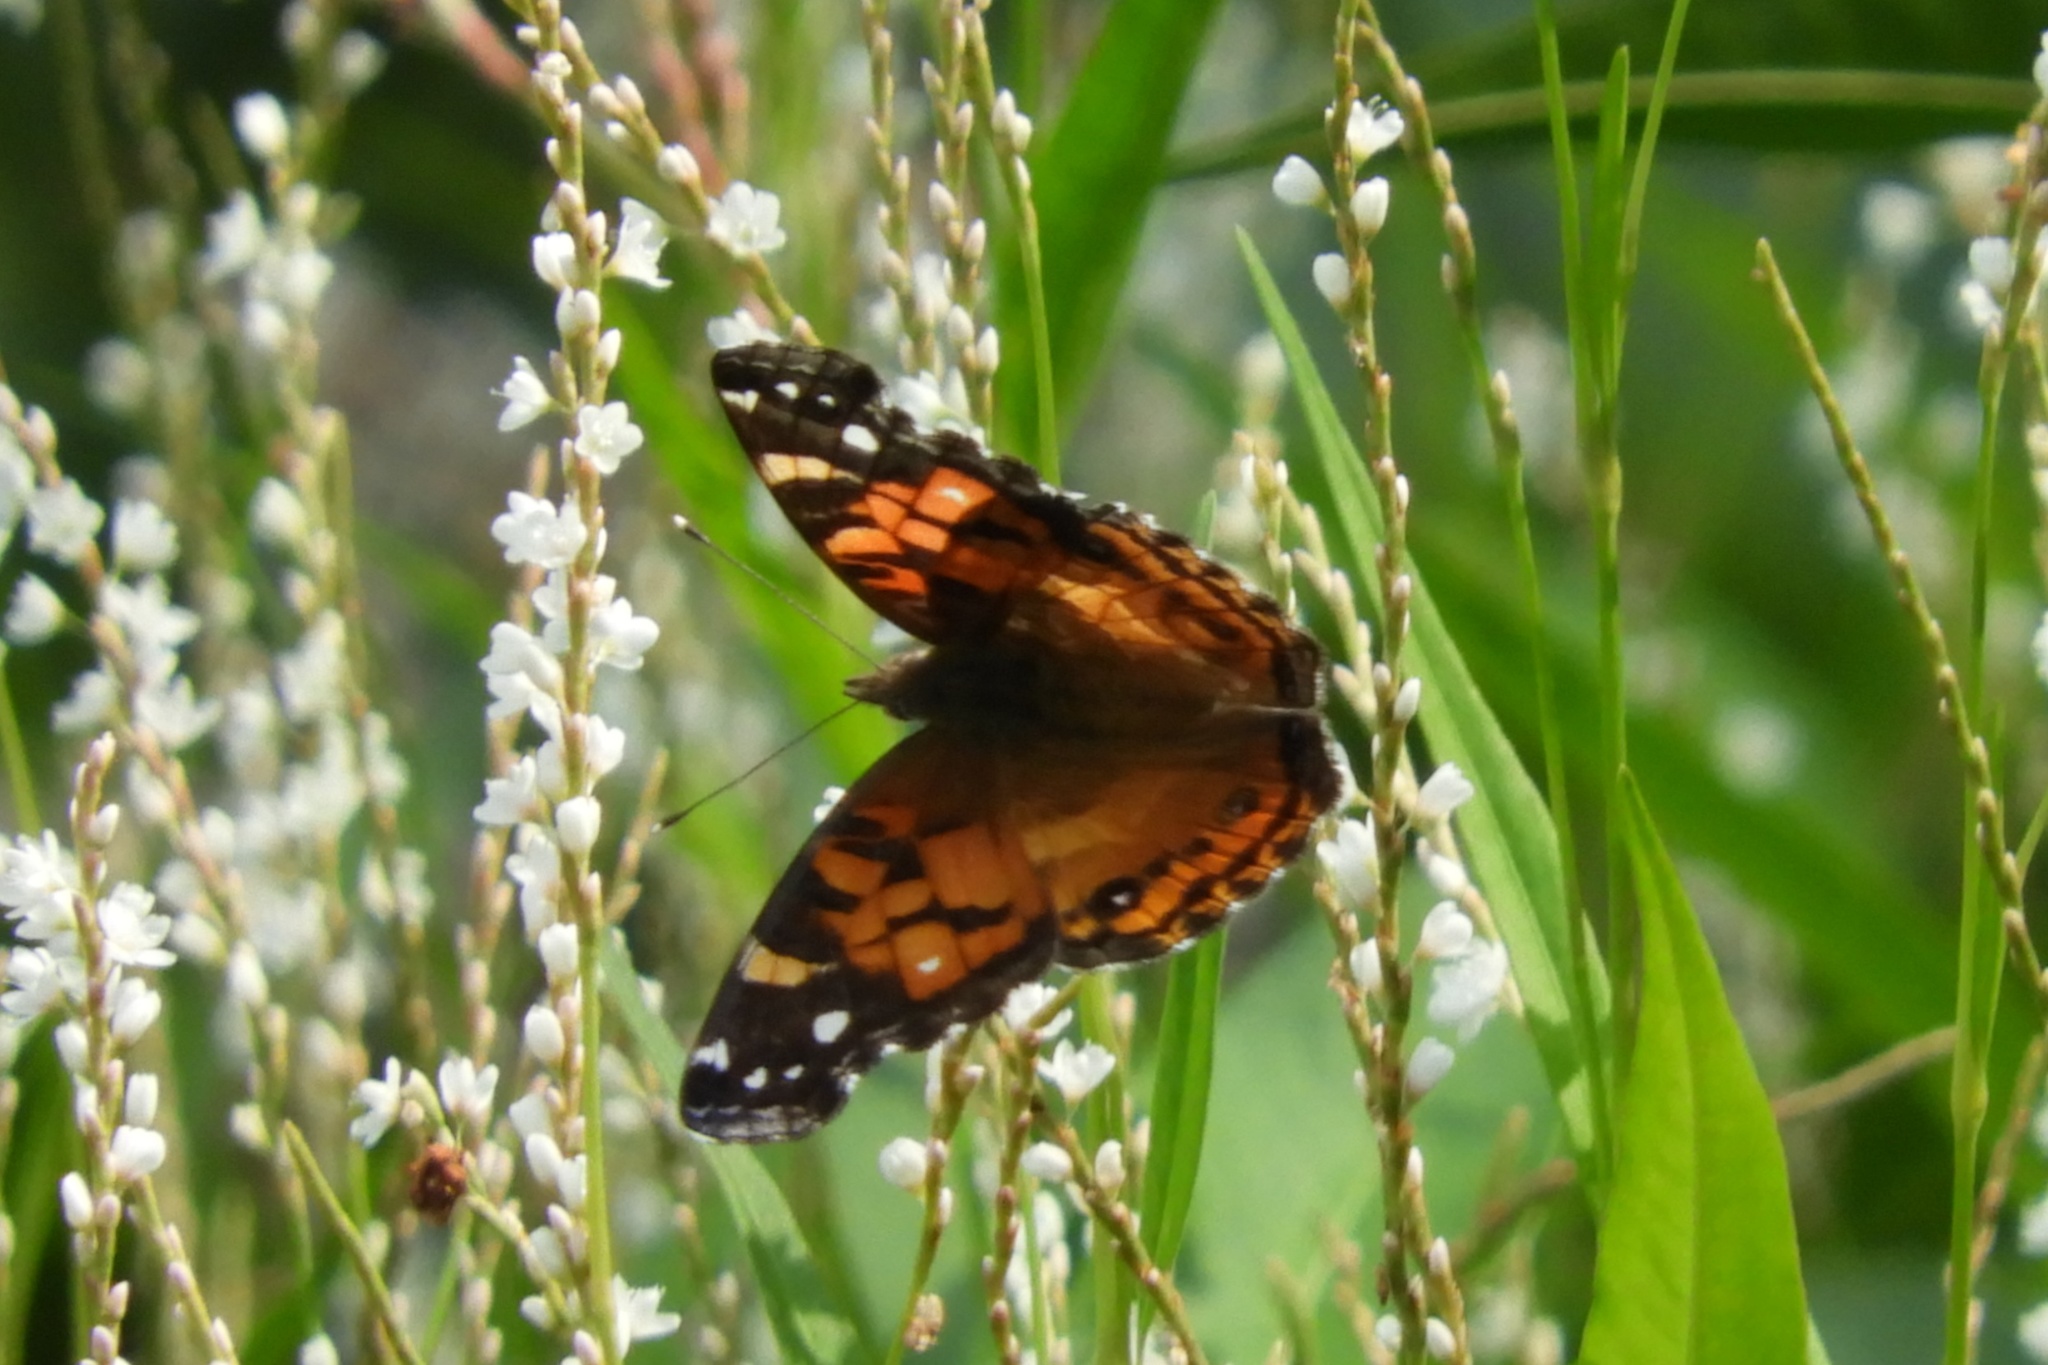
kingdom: Animalia
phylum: Arthropoda
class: Insecta
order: Lepidoptera
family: Nymphalidae
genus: Vanessa
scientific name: Vanessa virginiensis
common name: American lady
